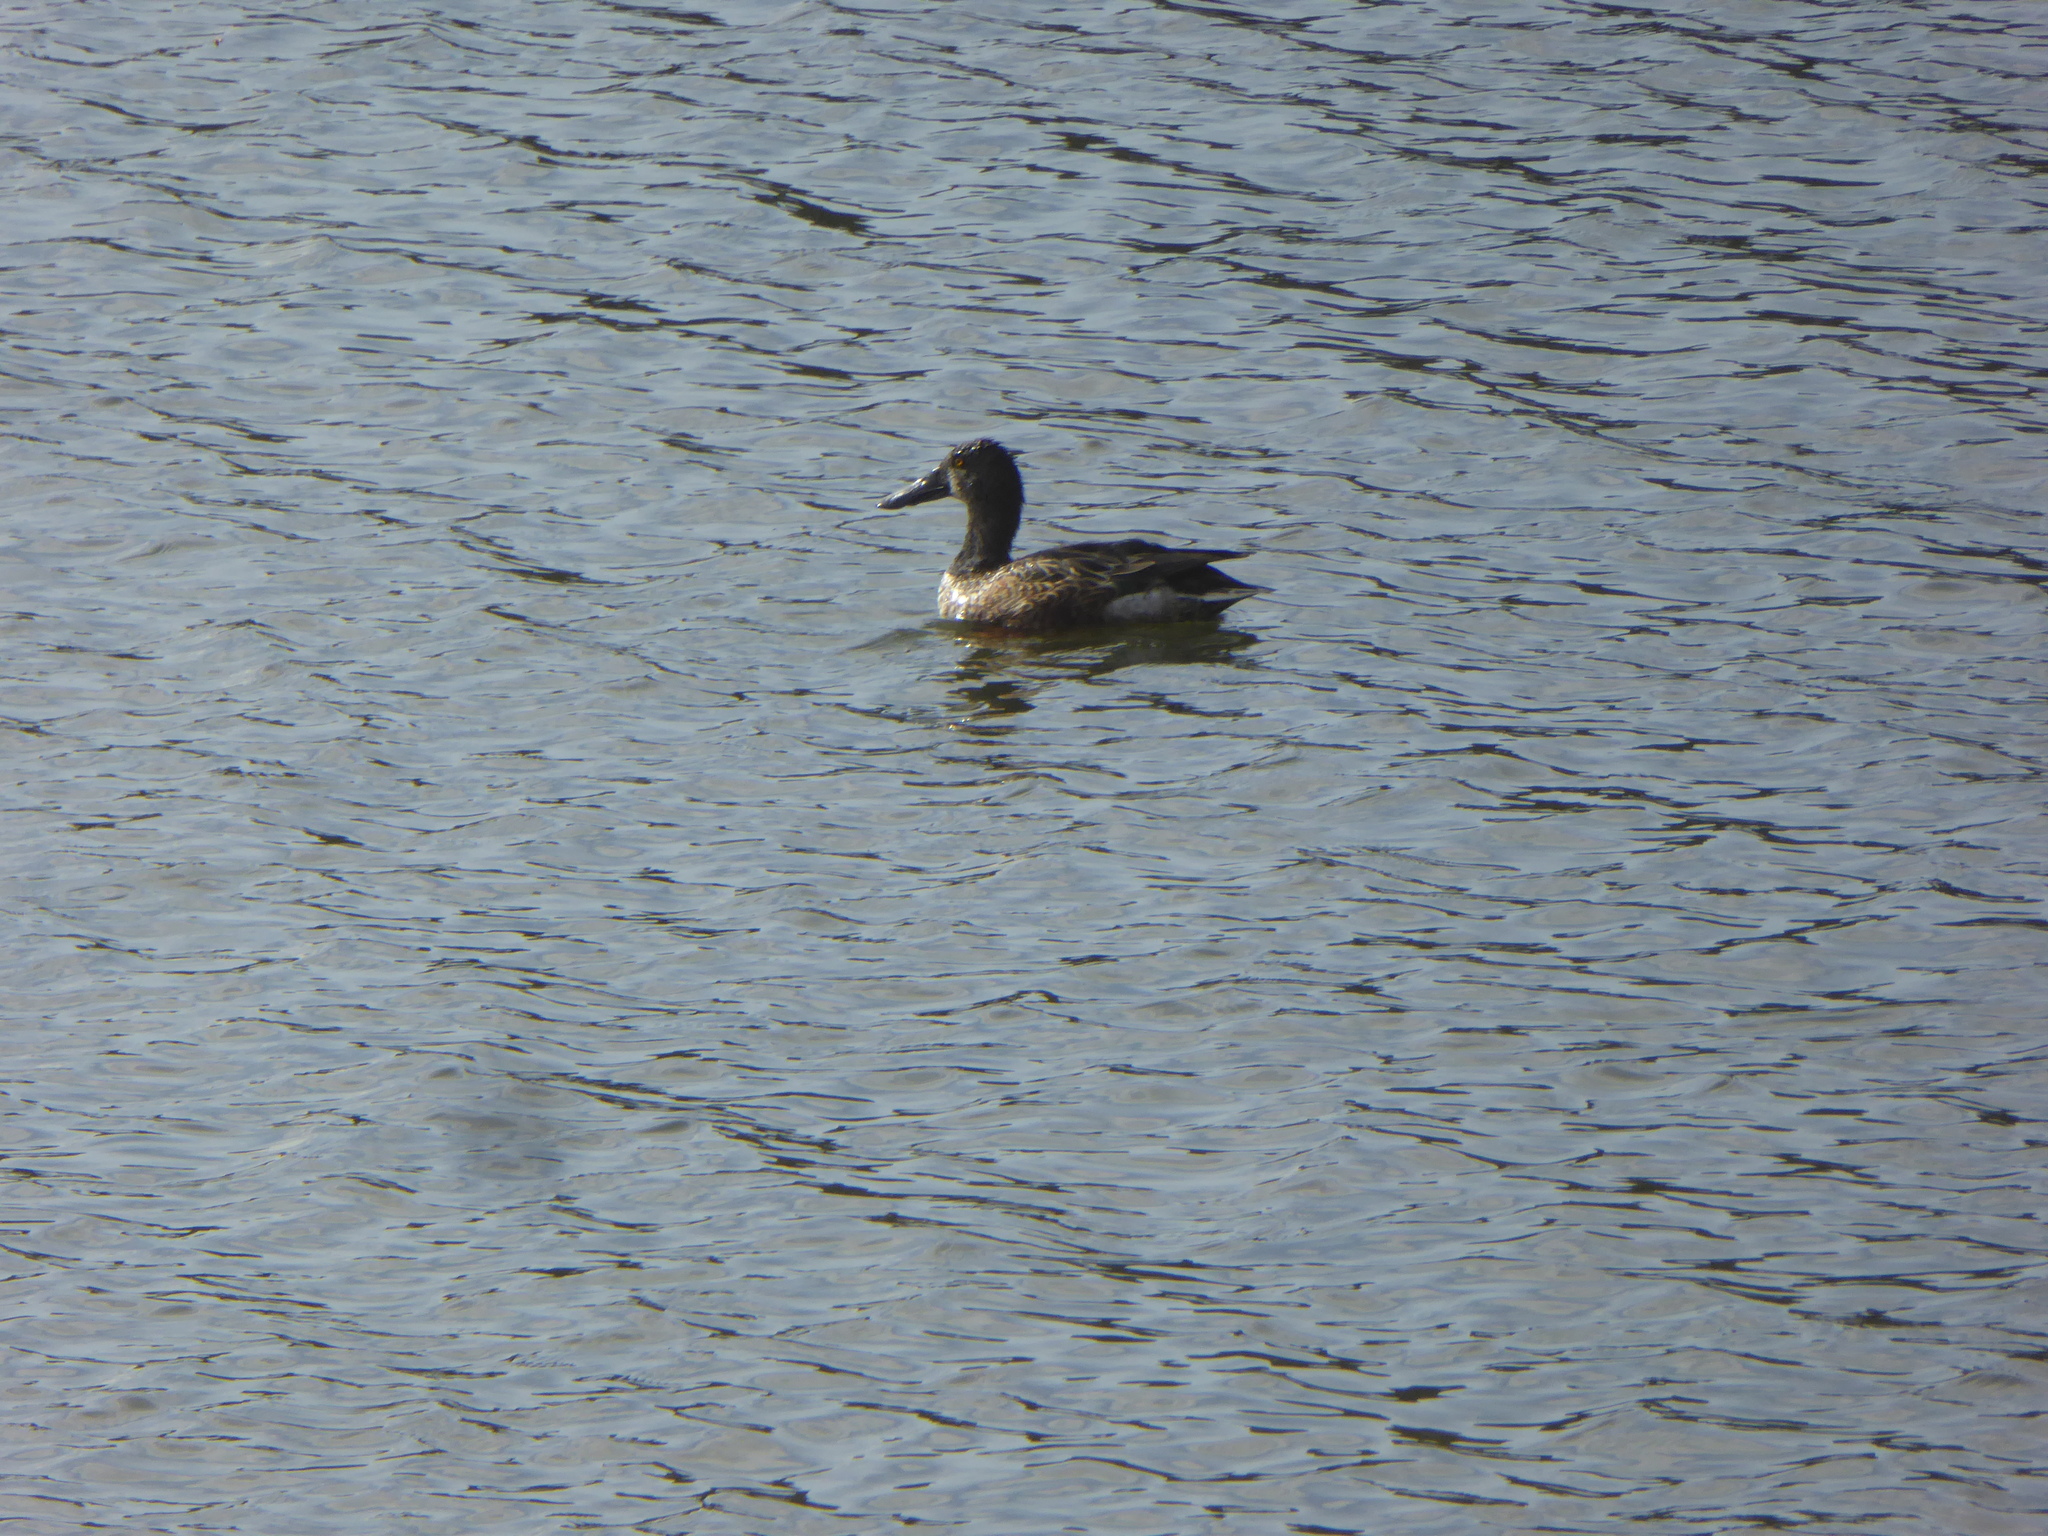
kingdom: Animalia
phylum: Chordata
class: Aves
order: Anseriformes
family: Anatidae
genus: Spatula
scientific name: Spatula clypeata
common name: Northern shoveler
